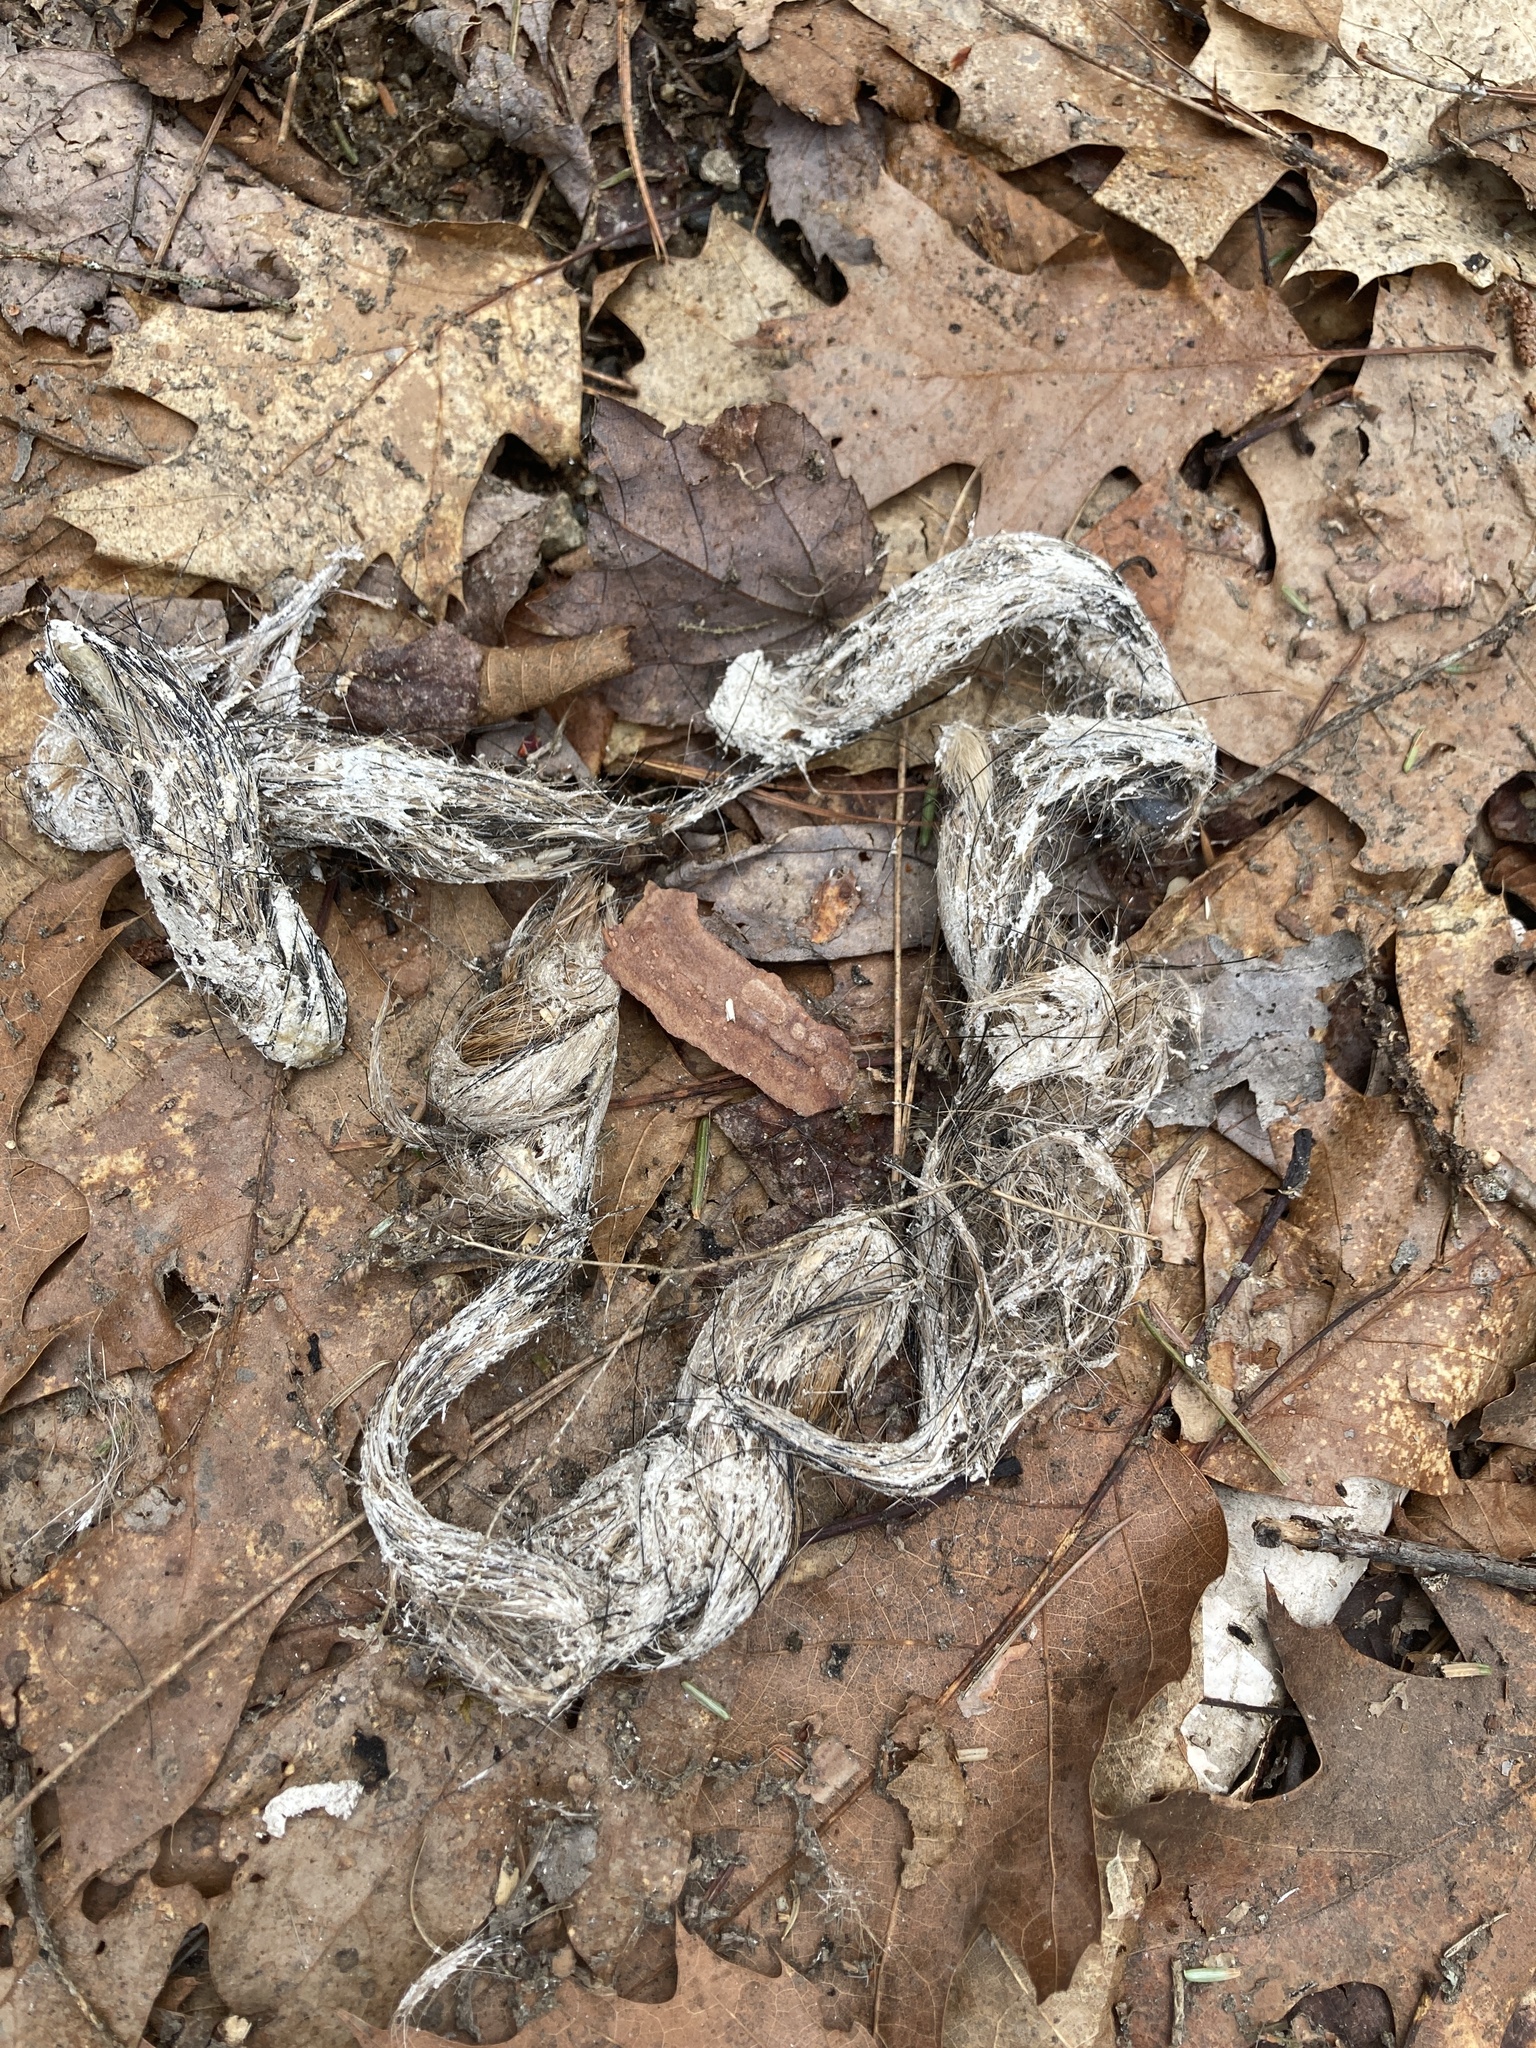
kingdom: Animalia
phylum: Chordata
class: Mammalia
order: Carnivora
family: Canidae
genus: Canis
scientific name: Canis latrans
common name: Coyote
